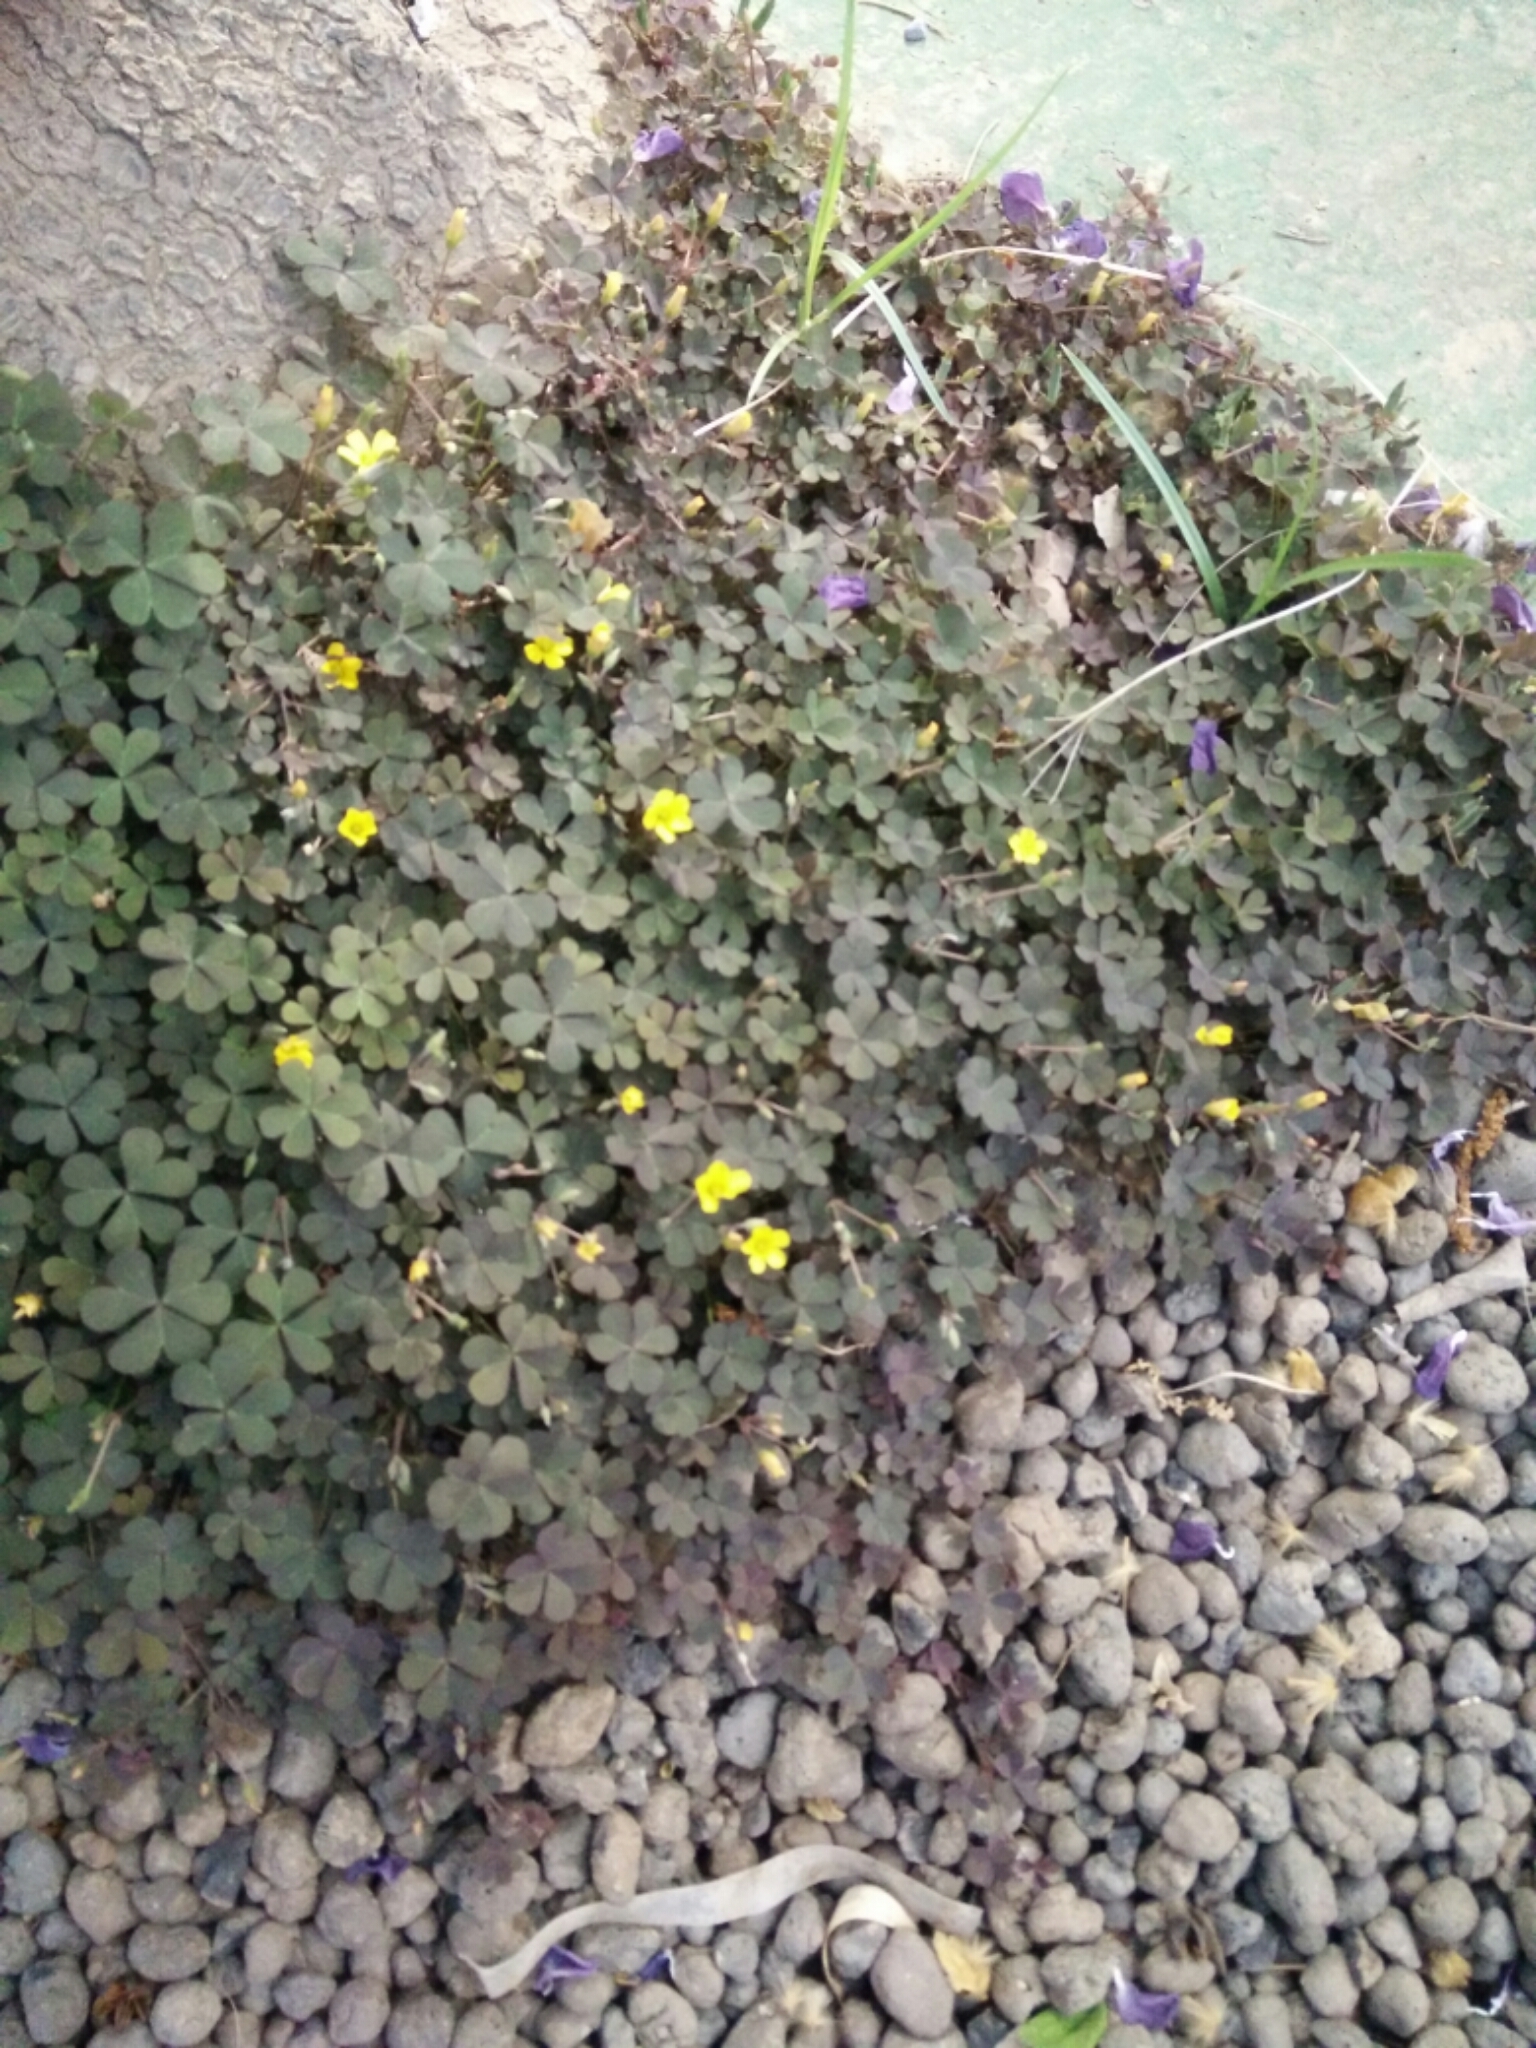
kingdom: Plantae
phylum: Tracheophyta
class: Magnoliopsida
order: Oxalidales
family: Oxalidaceae
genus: Oxalis
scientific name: Oxalis corniculata
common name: Procumbent yellow-sorrel
